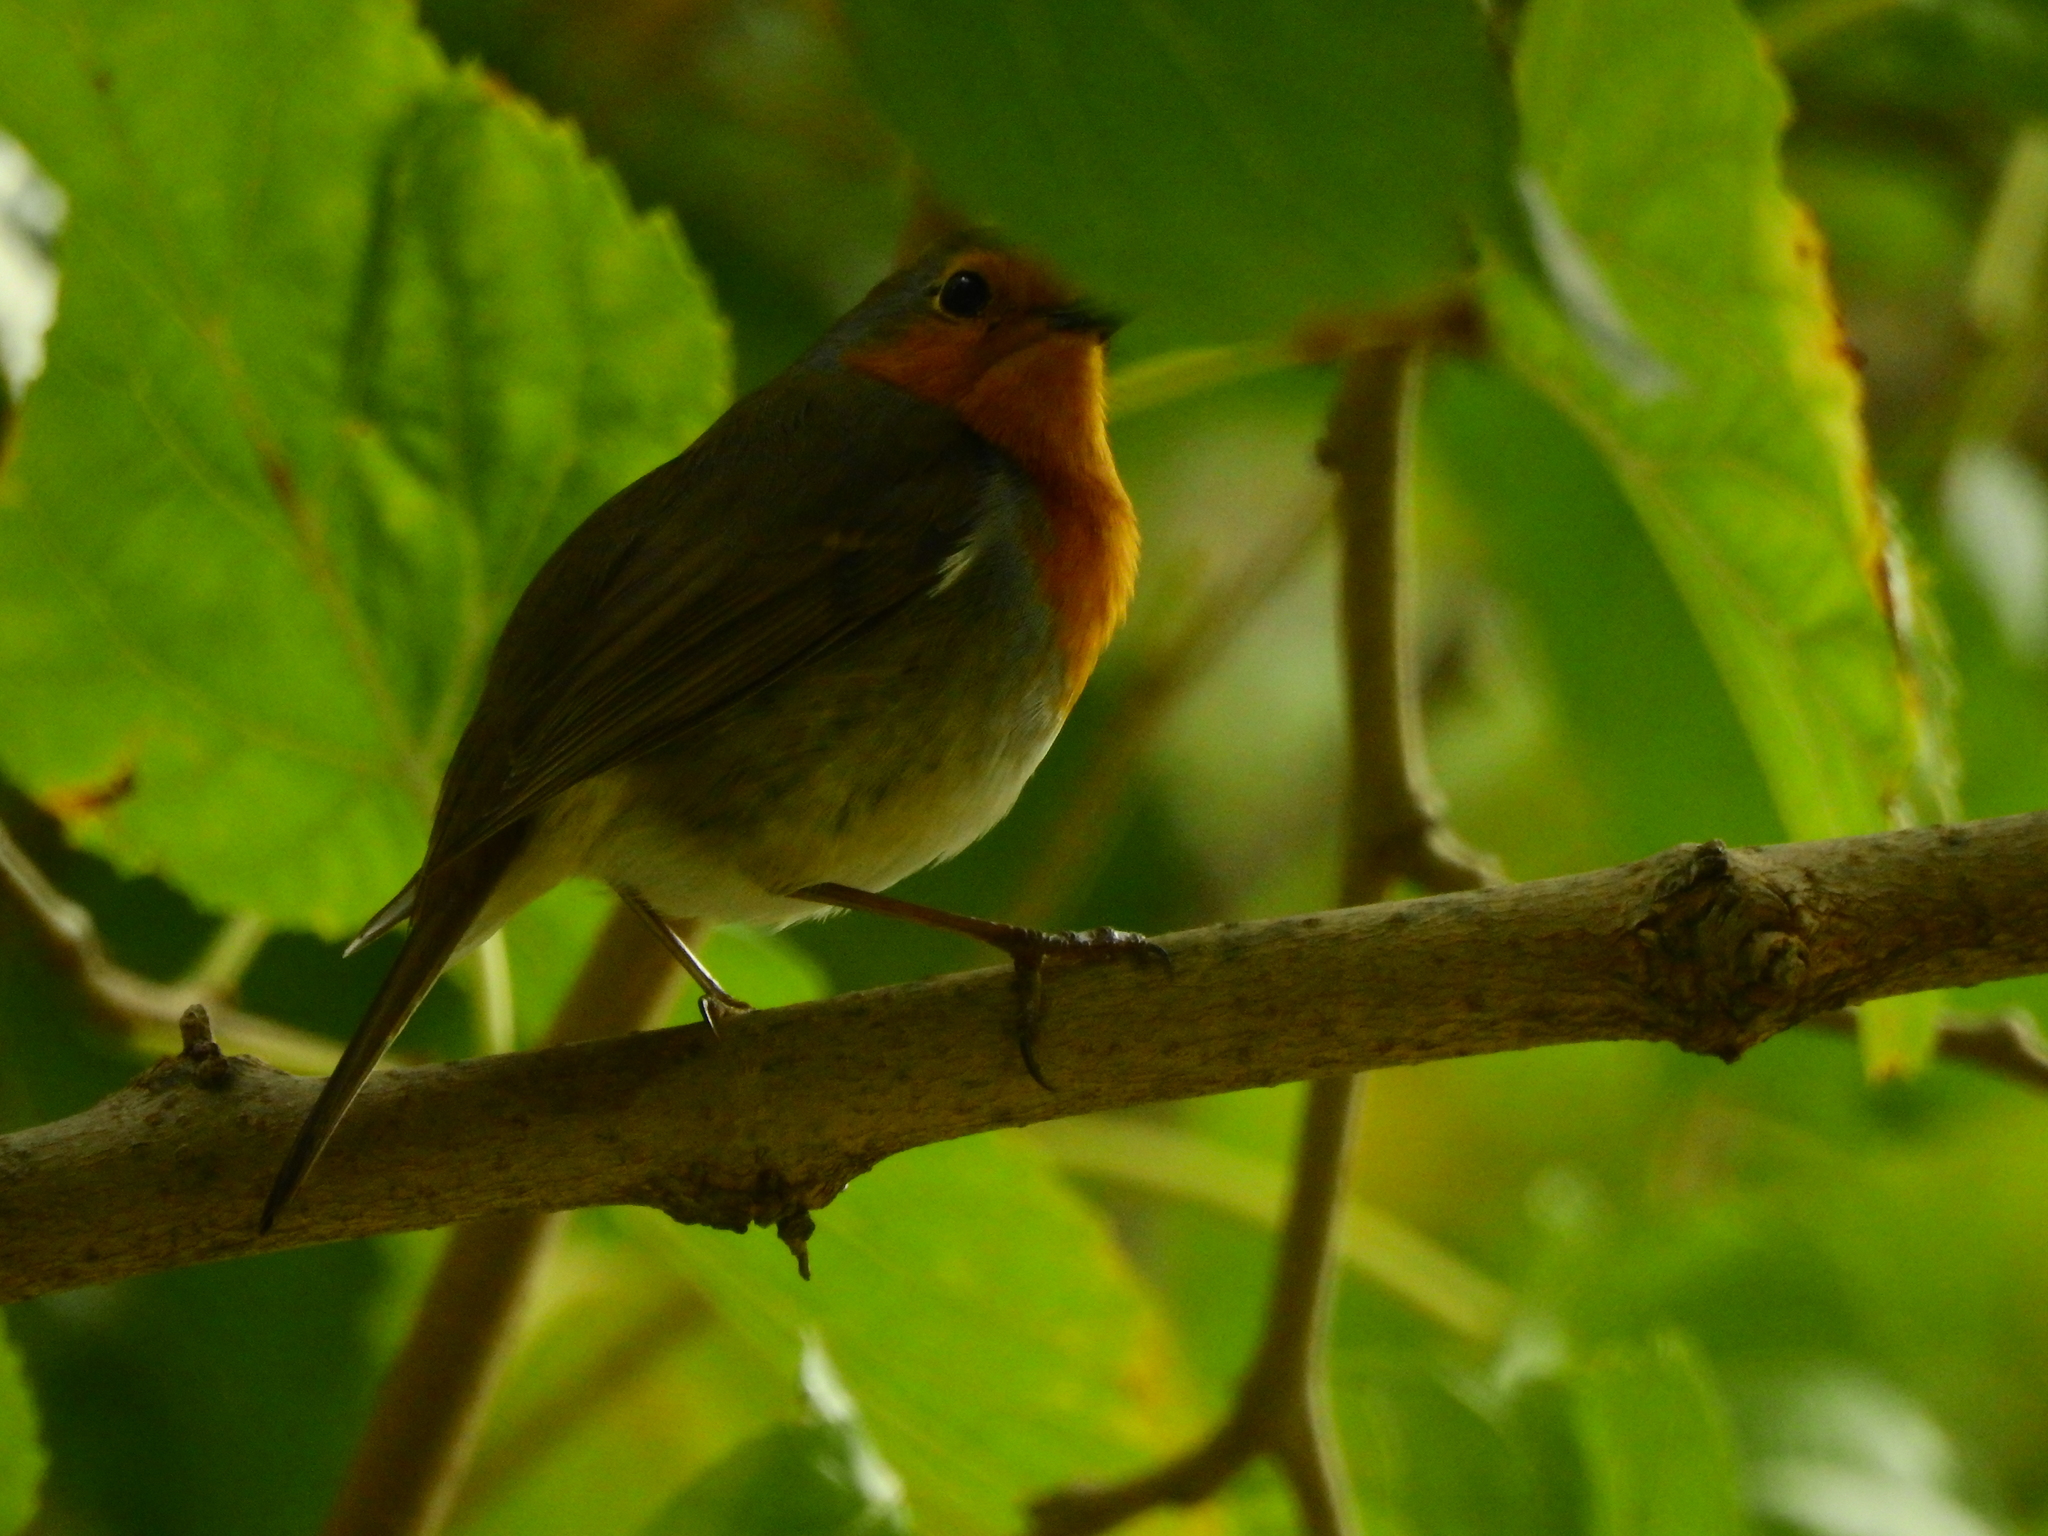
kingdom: Animalia
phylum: Chordata
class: Aves
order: Passeriformes
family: Muscicapidae
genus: Erithacus
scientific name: Erithacus rubecula
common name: European robin
